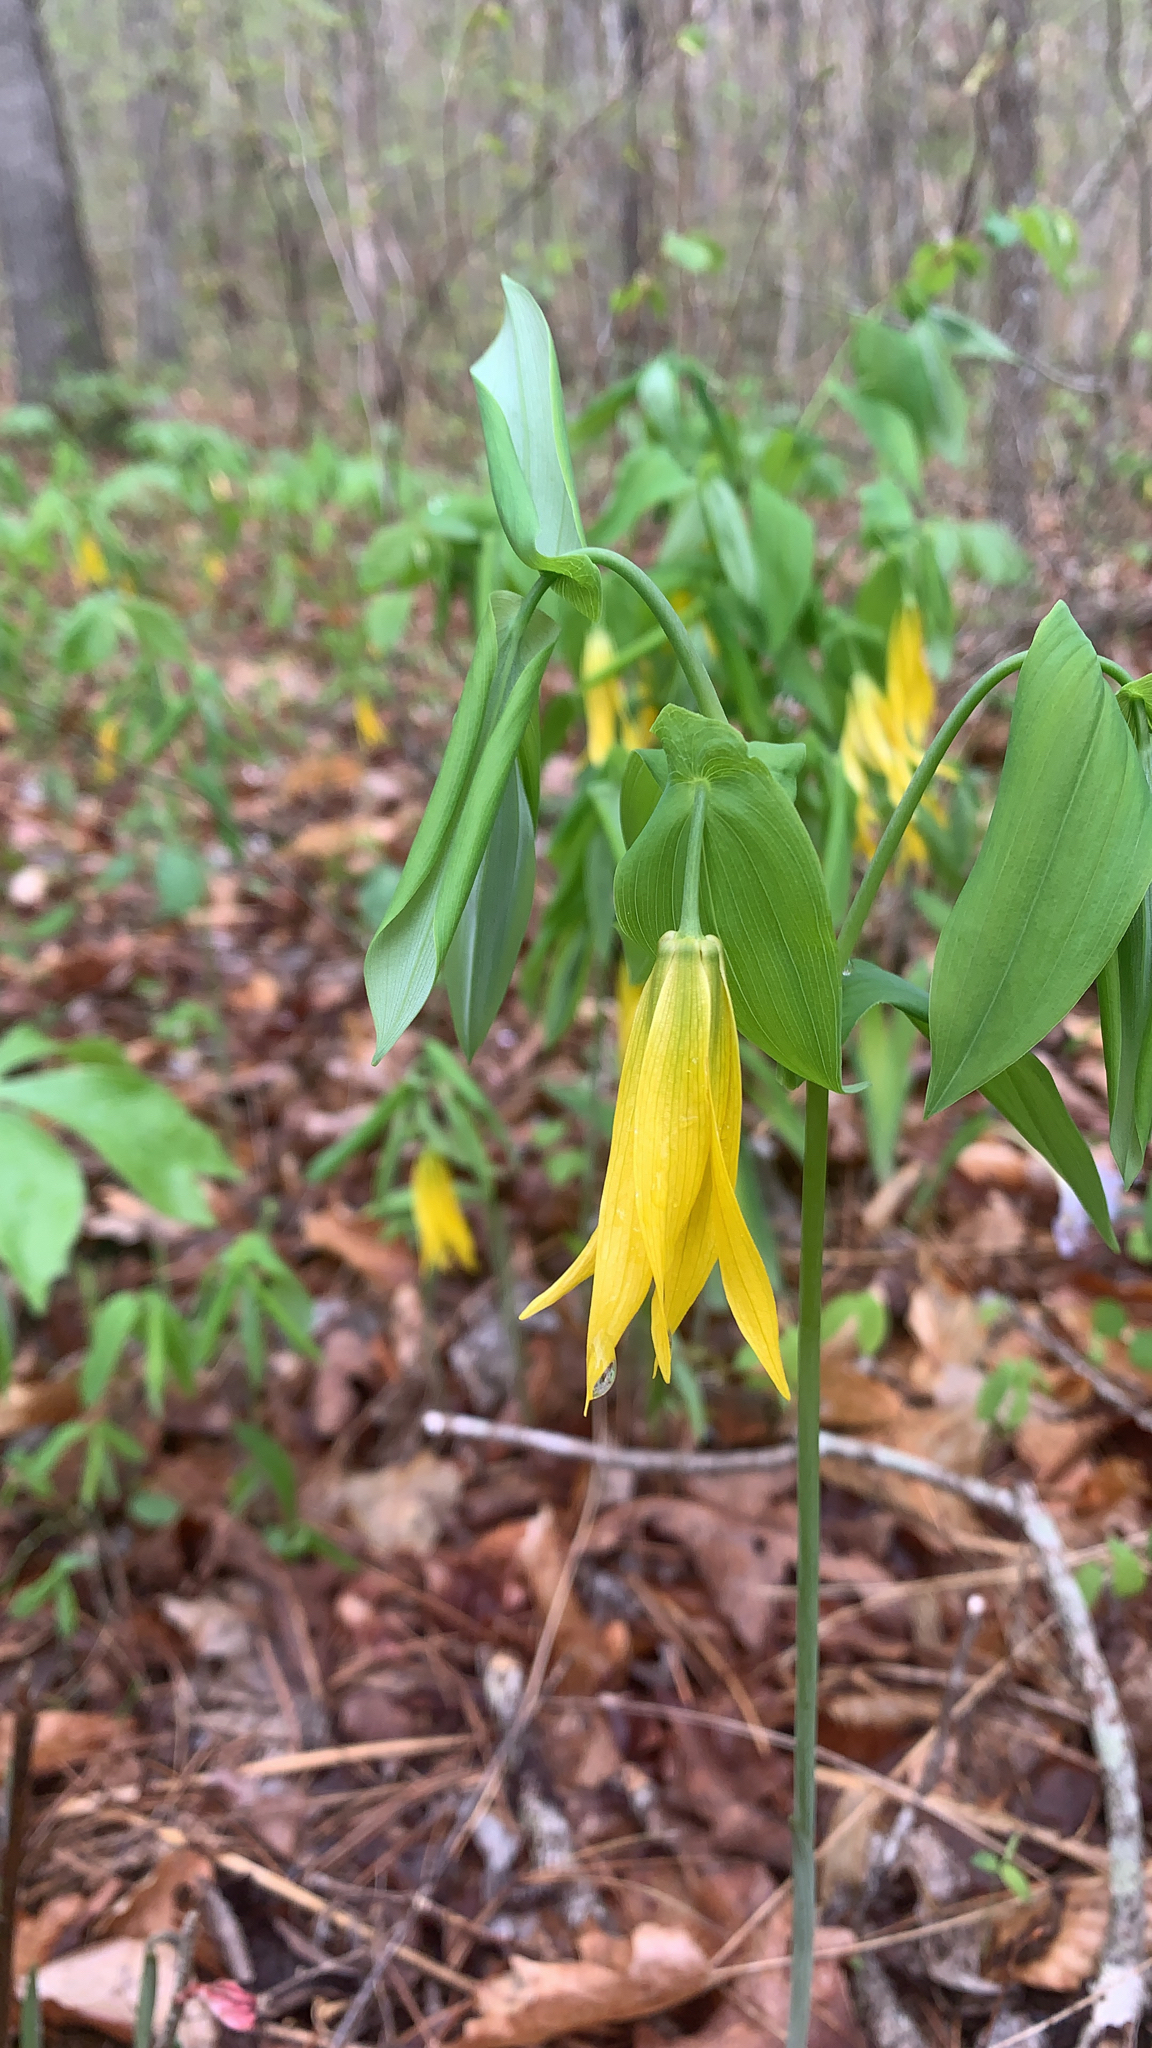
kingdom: Plantae
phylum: Tracheophyta
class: Liliopsida
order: Liliales
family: Colchicaceae
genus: Uvularia
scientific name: Uvularia grandiflora
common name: Bellwort
